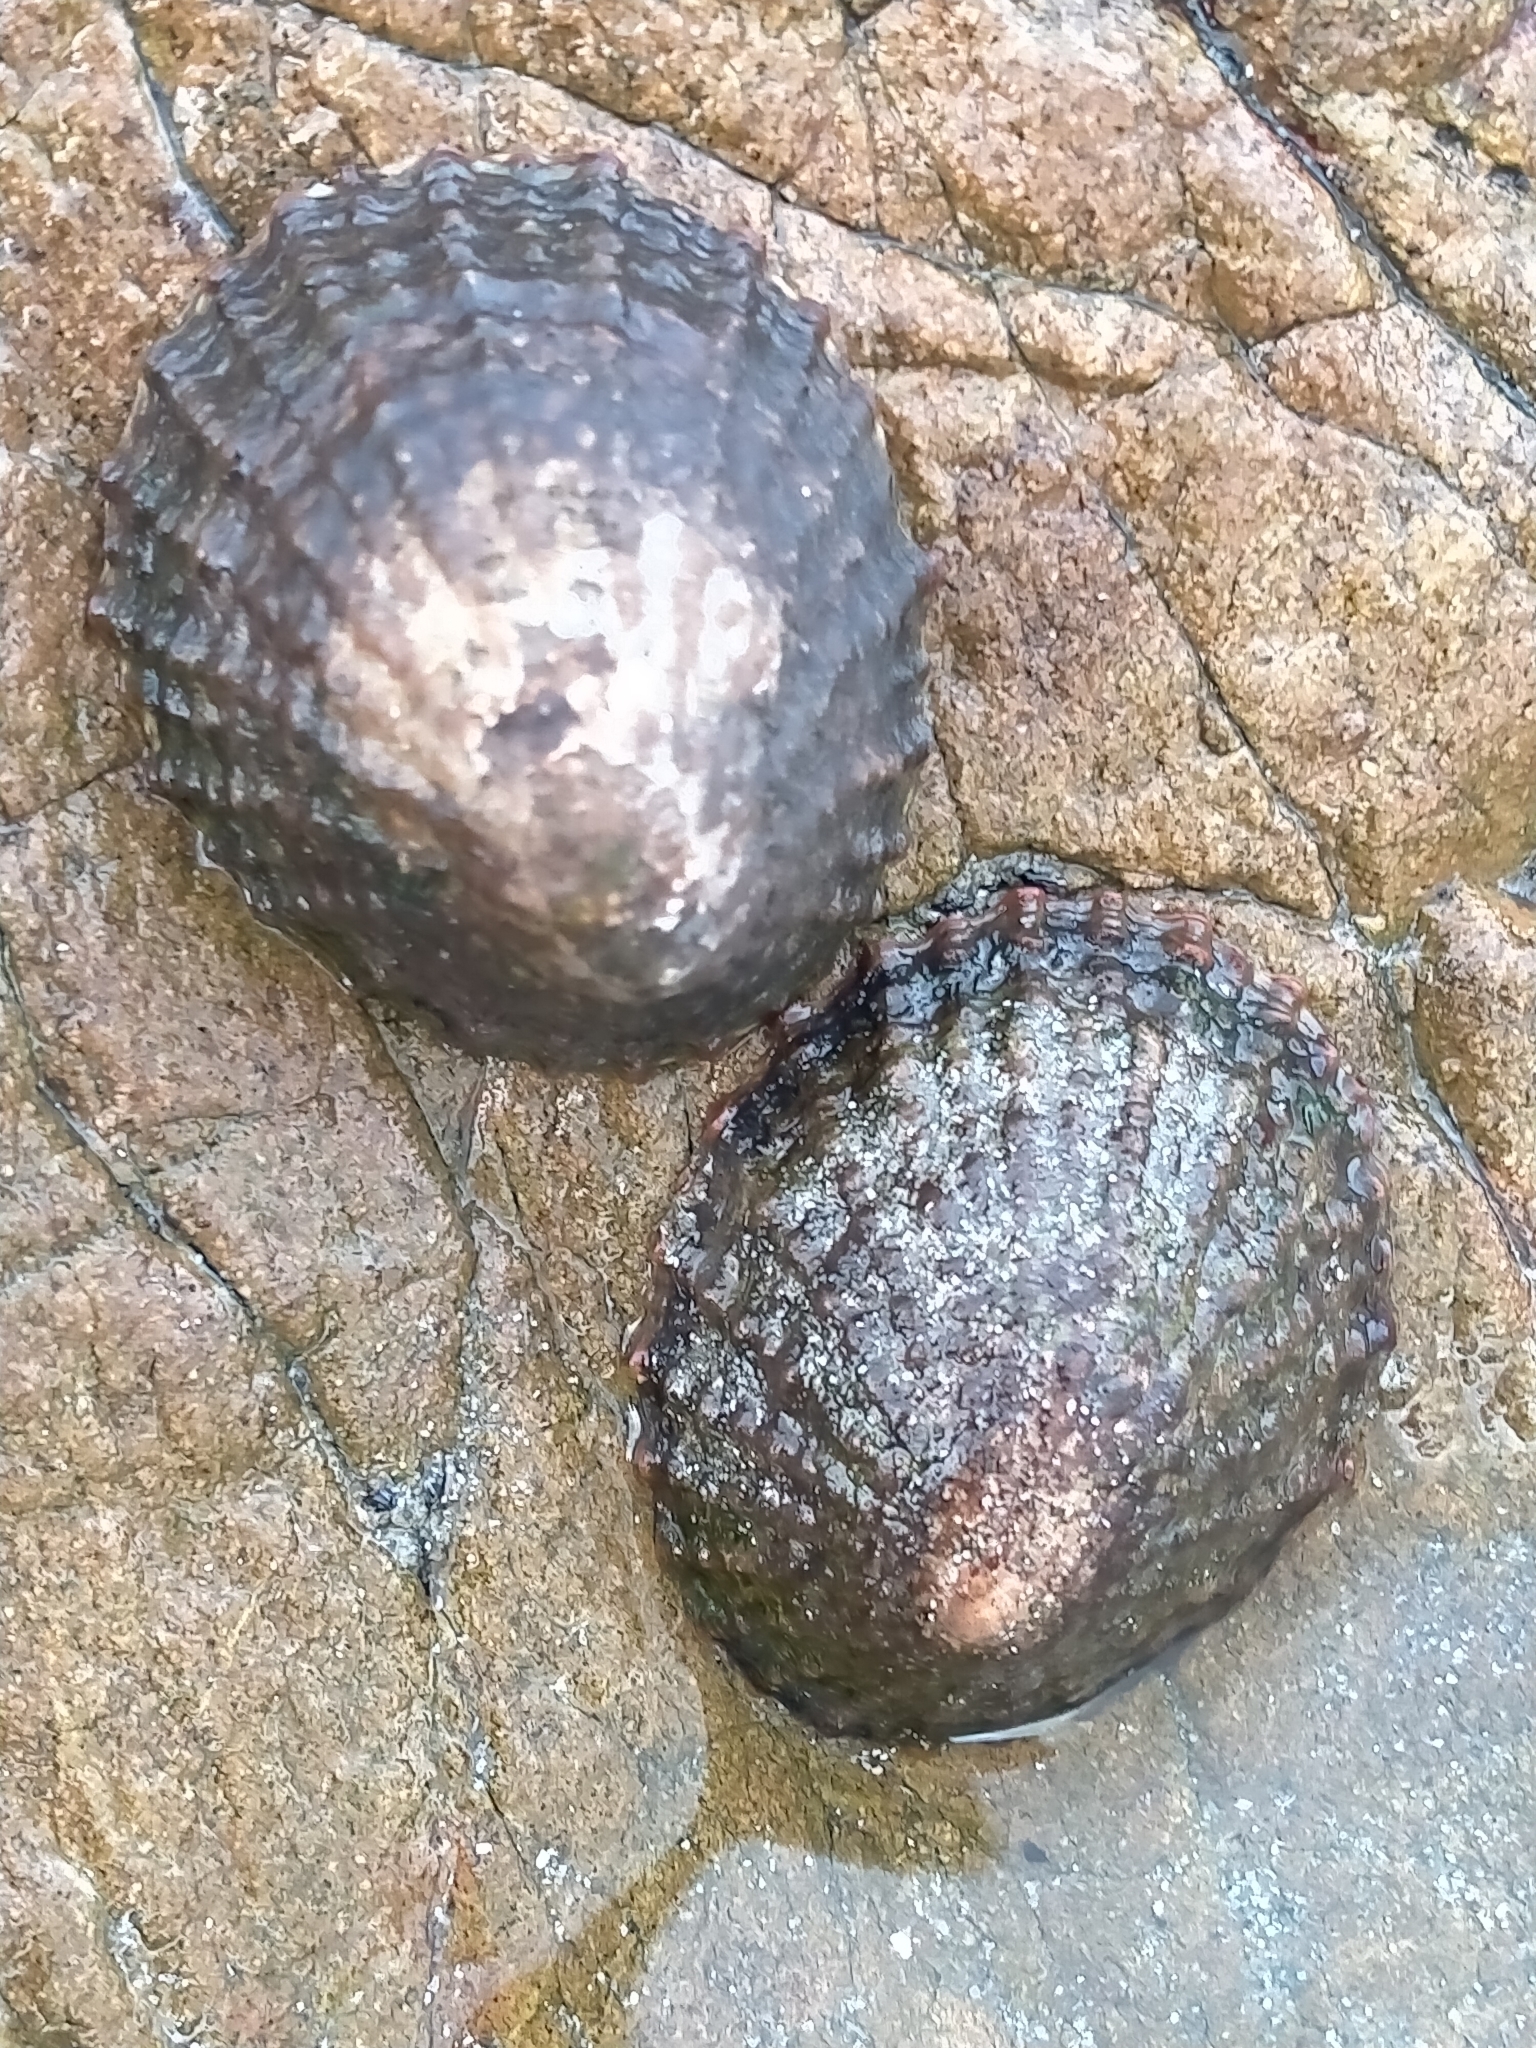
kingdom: Animalia
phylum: Mollusca
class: Gastropoda
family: Nacellidae
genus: Cellana
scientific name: Cellana denticulata
